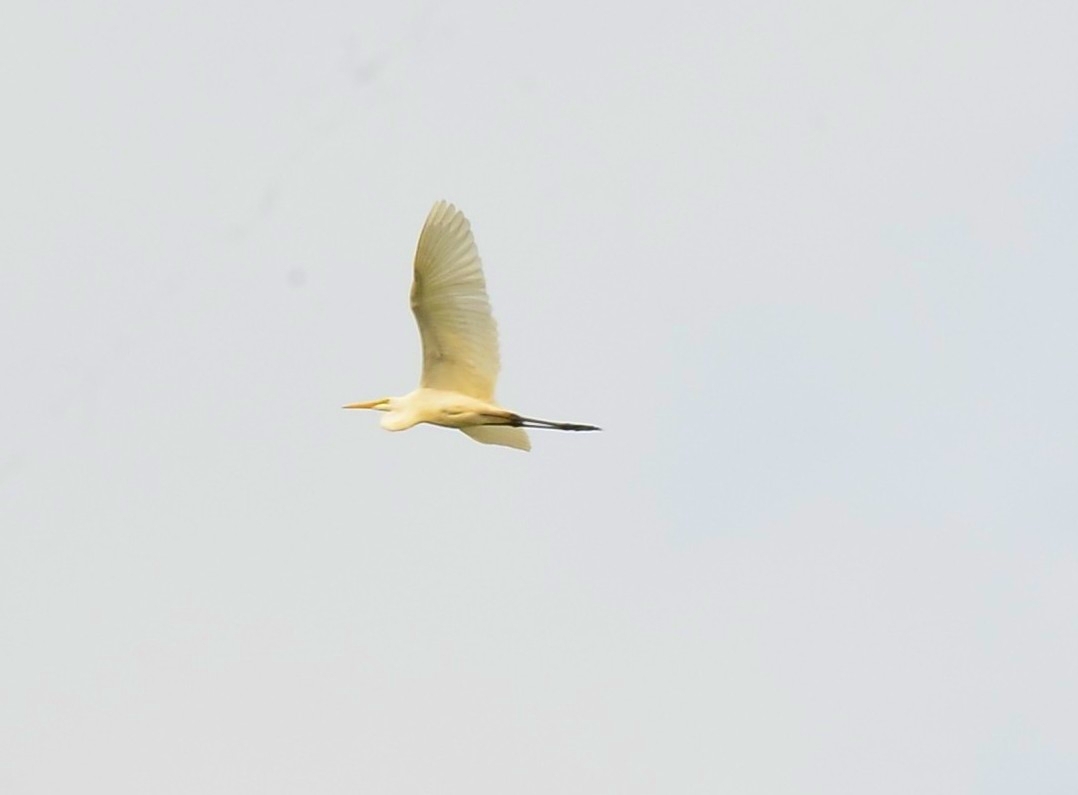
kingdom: Animalia
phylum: Chordata
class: Aves
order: Pelecaniformes
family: Ardeidae
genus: Egretta
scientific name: Egretta intermedia
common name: Intermediate egret
